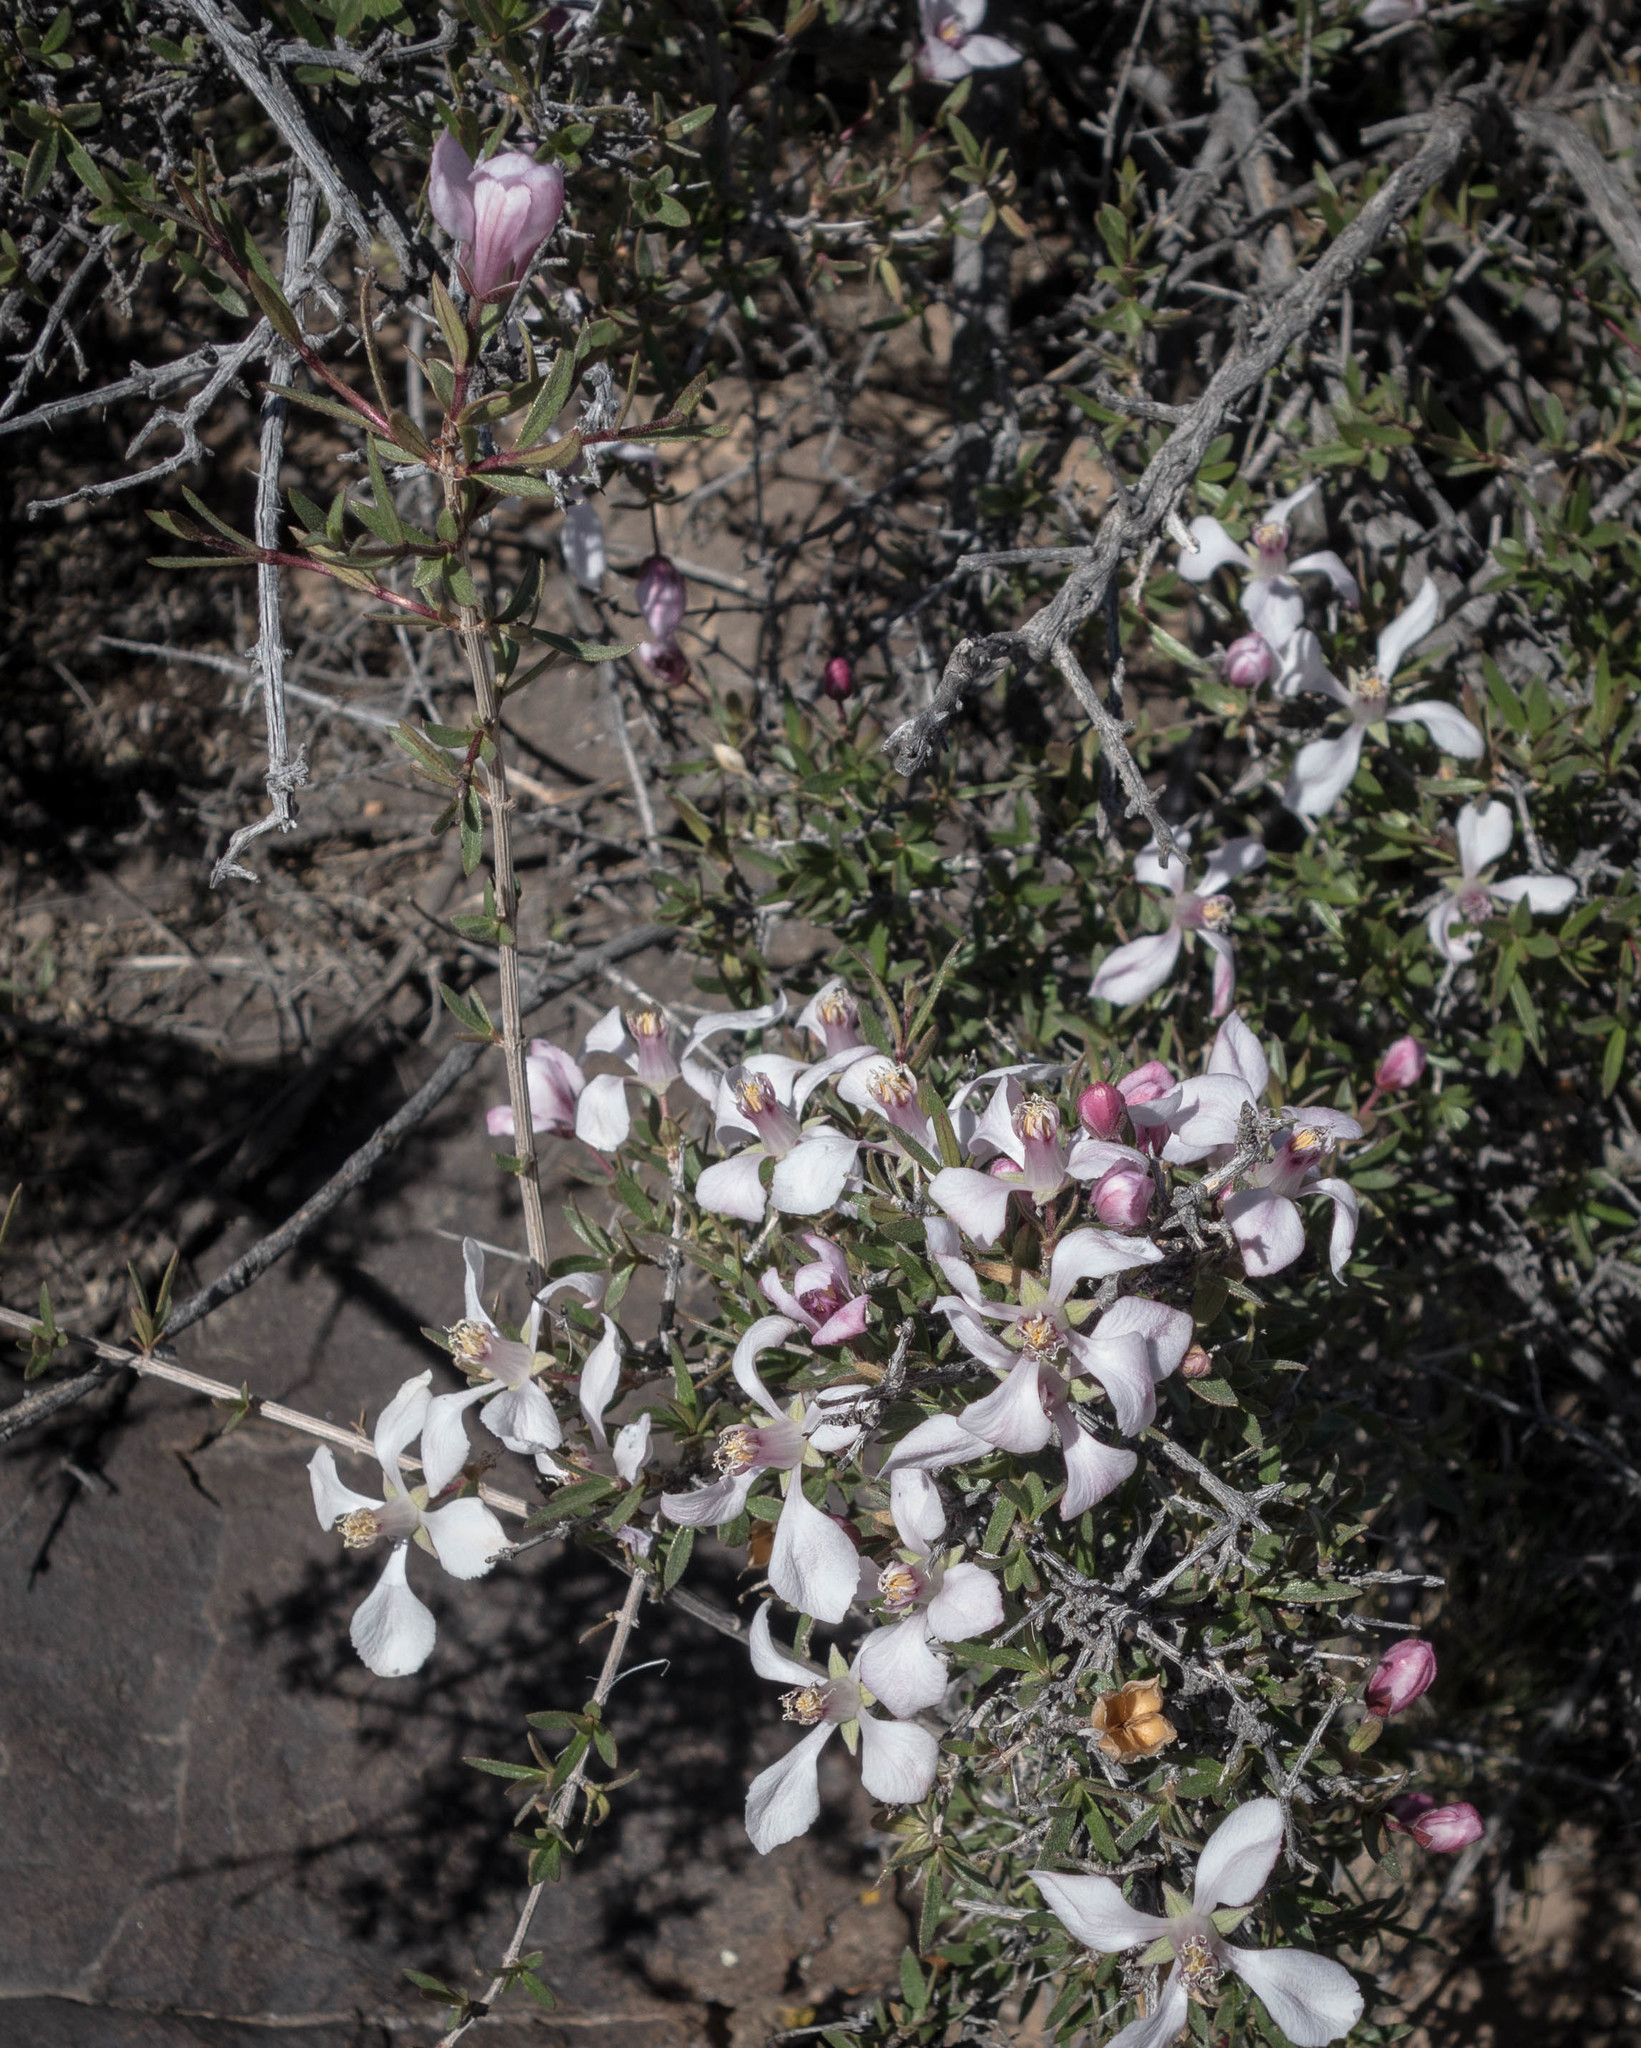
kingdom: Plantae
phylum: Tracheophyta
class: Magnoliopsida
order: Cornales
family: Hydrangeaceae
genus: Fendlera
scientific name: Fendlera rupicola
